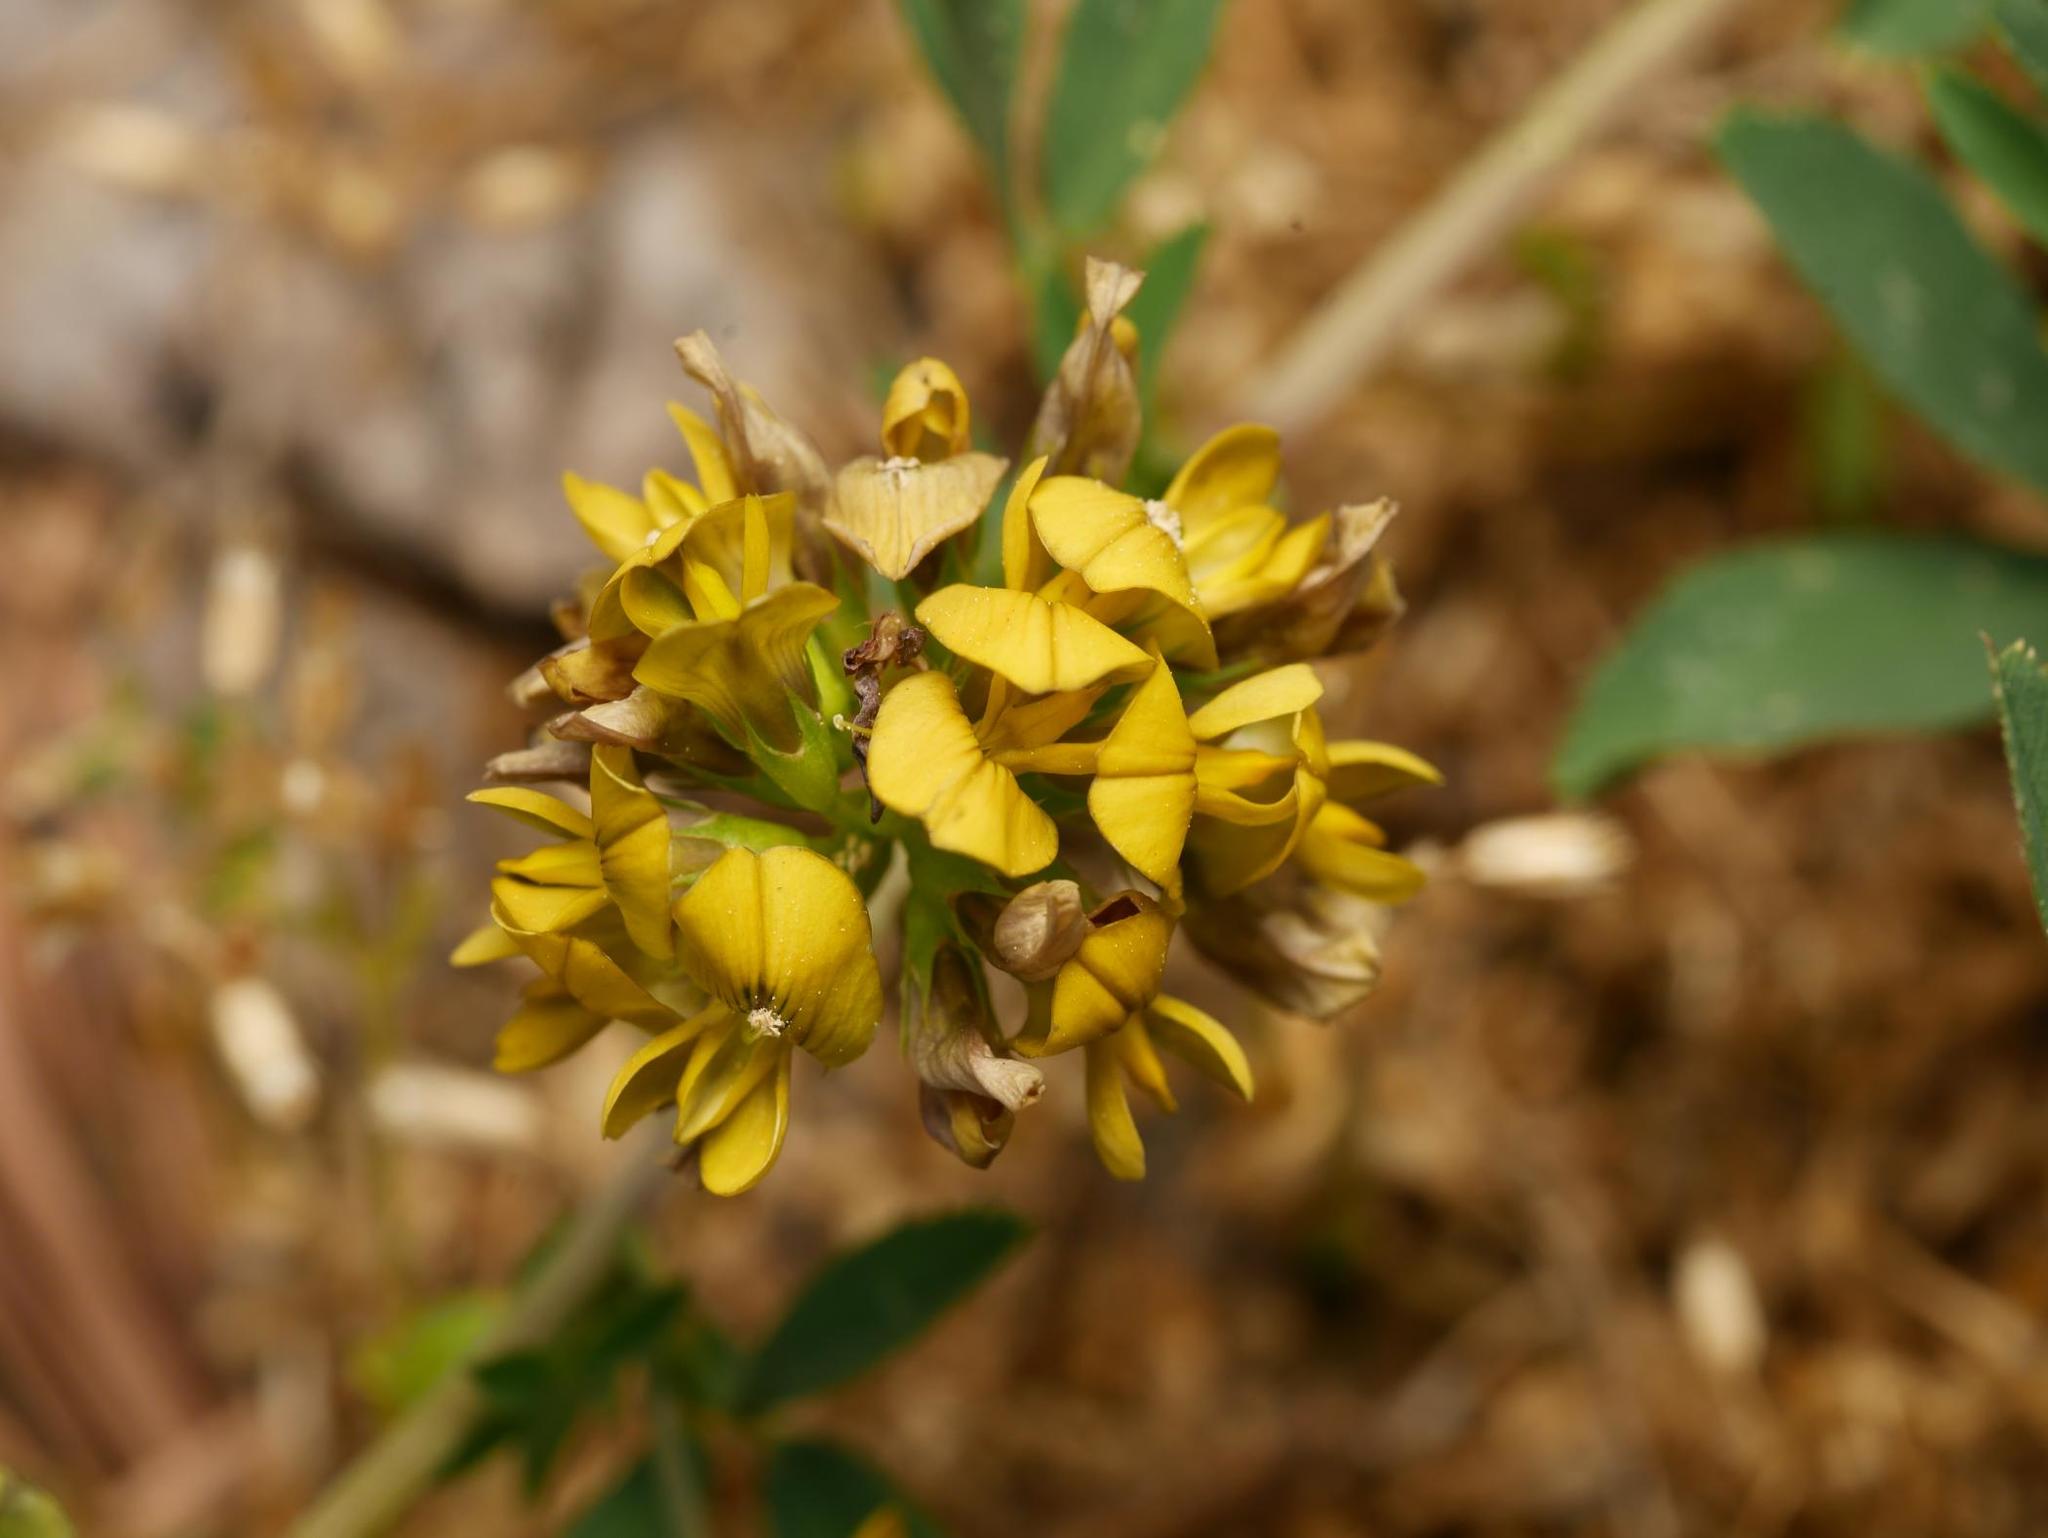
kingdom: Plantae
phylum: Tracheophyta
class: Magnoliopsida
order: Fabales
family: Fabaceae
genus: Medicago
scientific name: Medicago varia
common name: Sand lucerne
